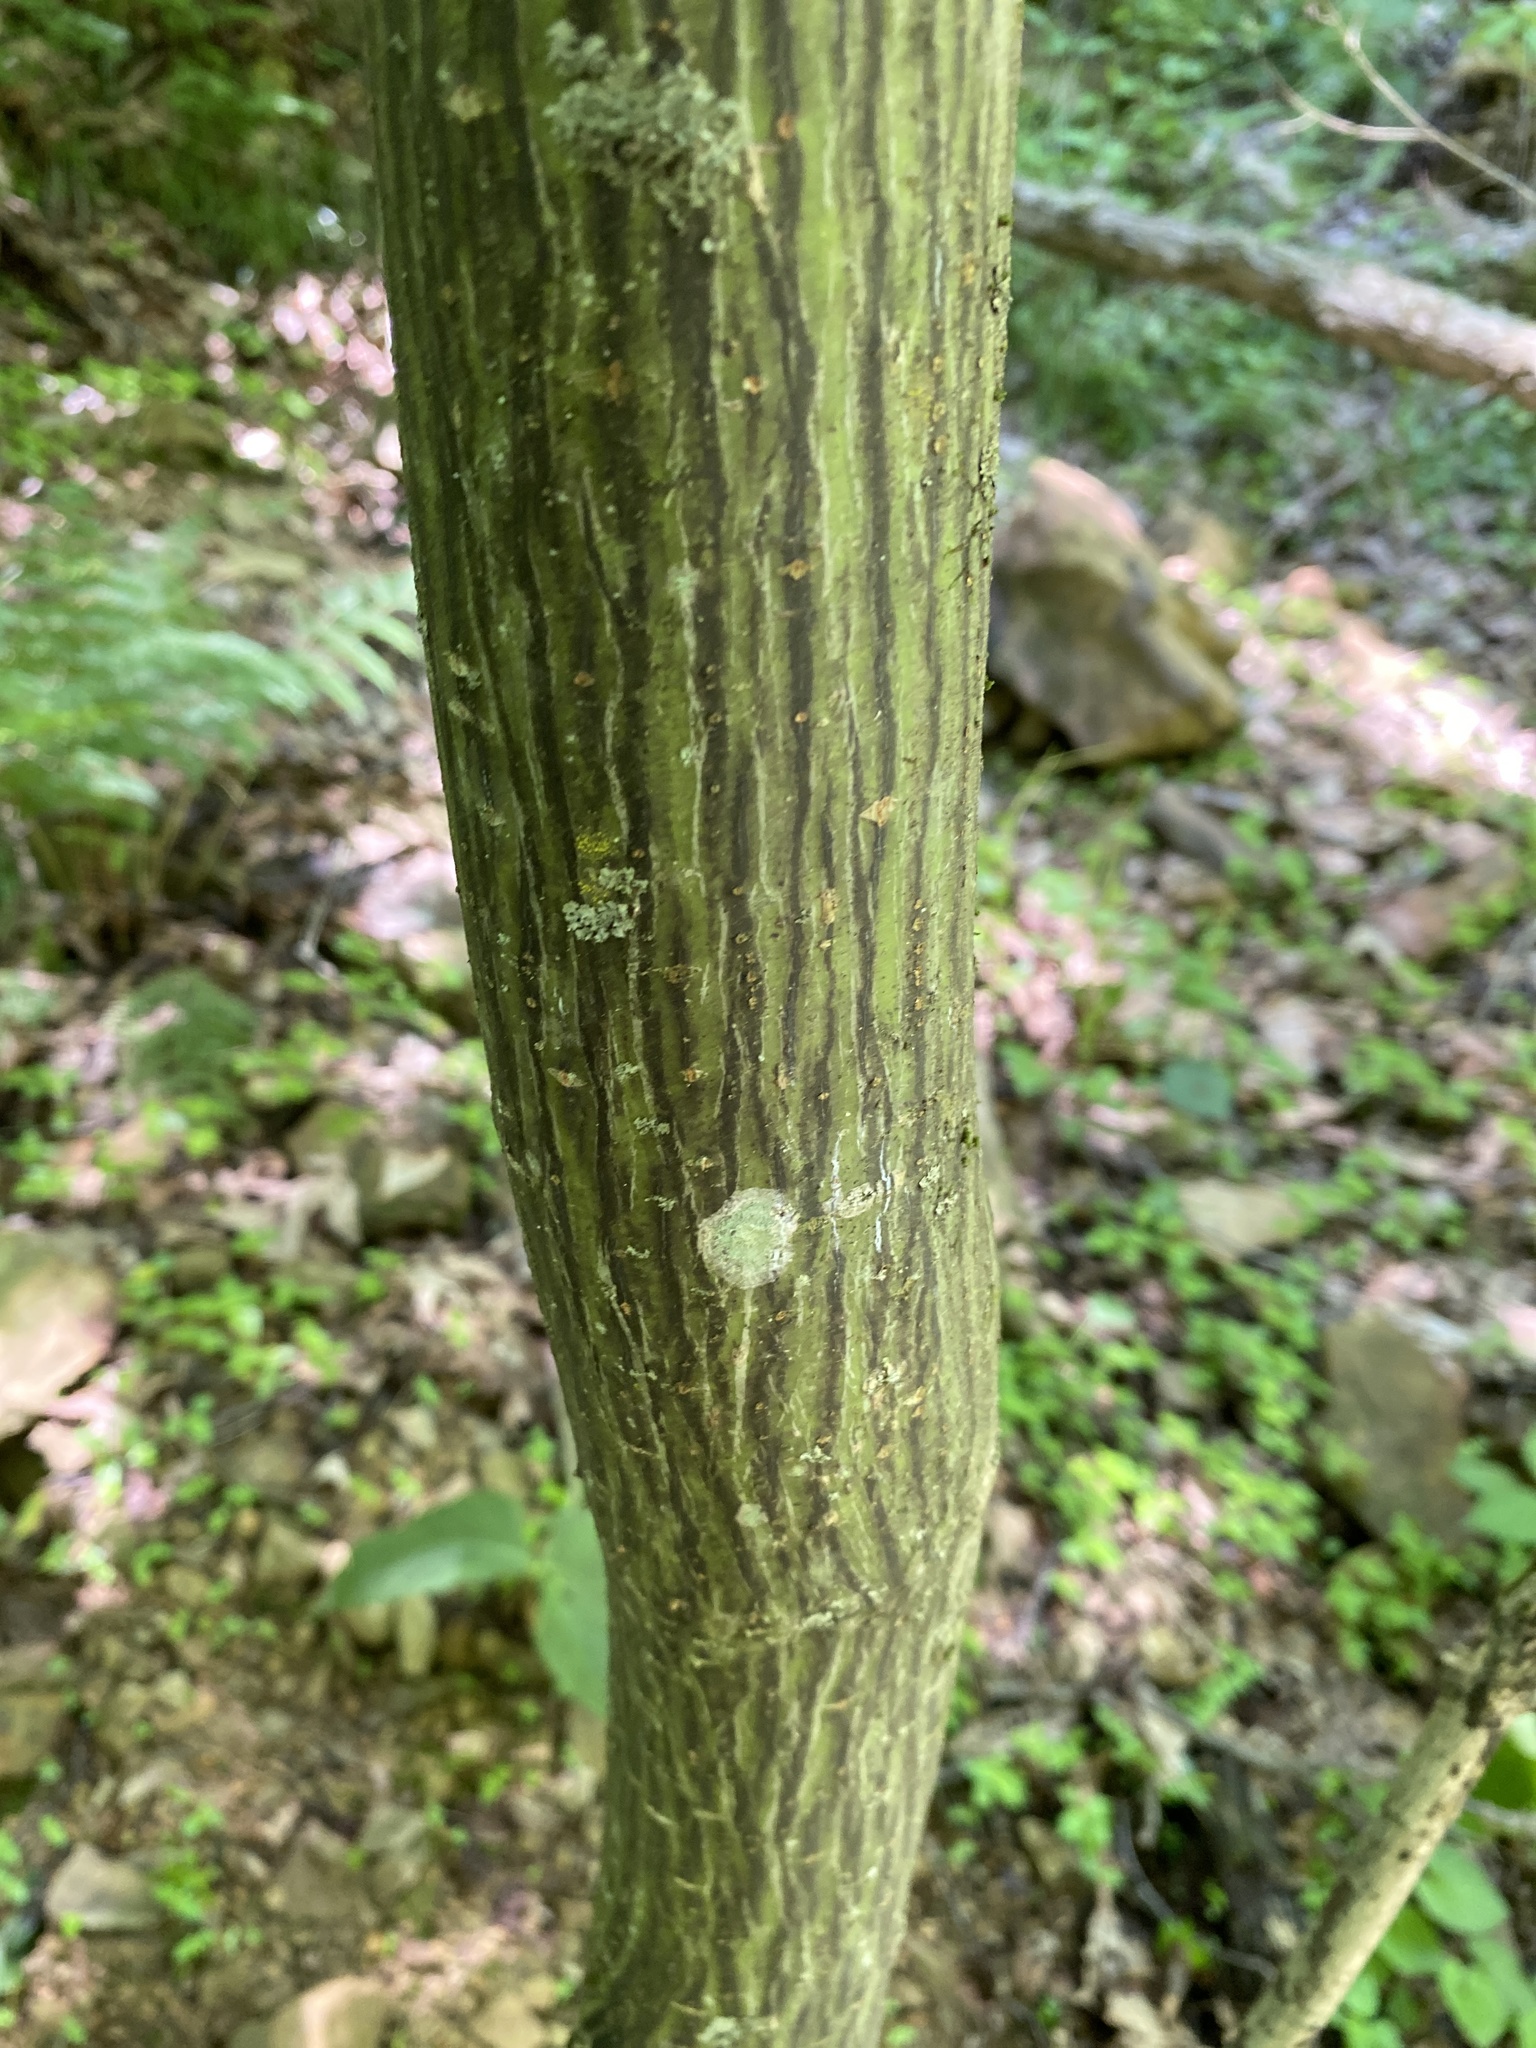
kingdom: Plantae
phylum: Tracheophyta
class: Magnoliopsida
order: Sapindales
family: Sapindaceae
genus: Acer
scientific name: Acer pensylvanicum
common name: Moosewood
